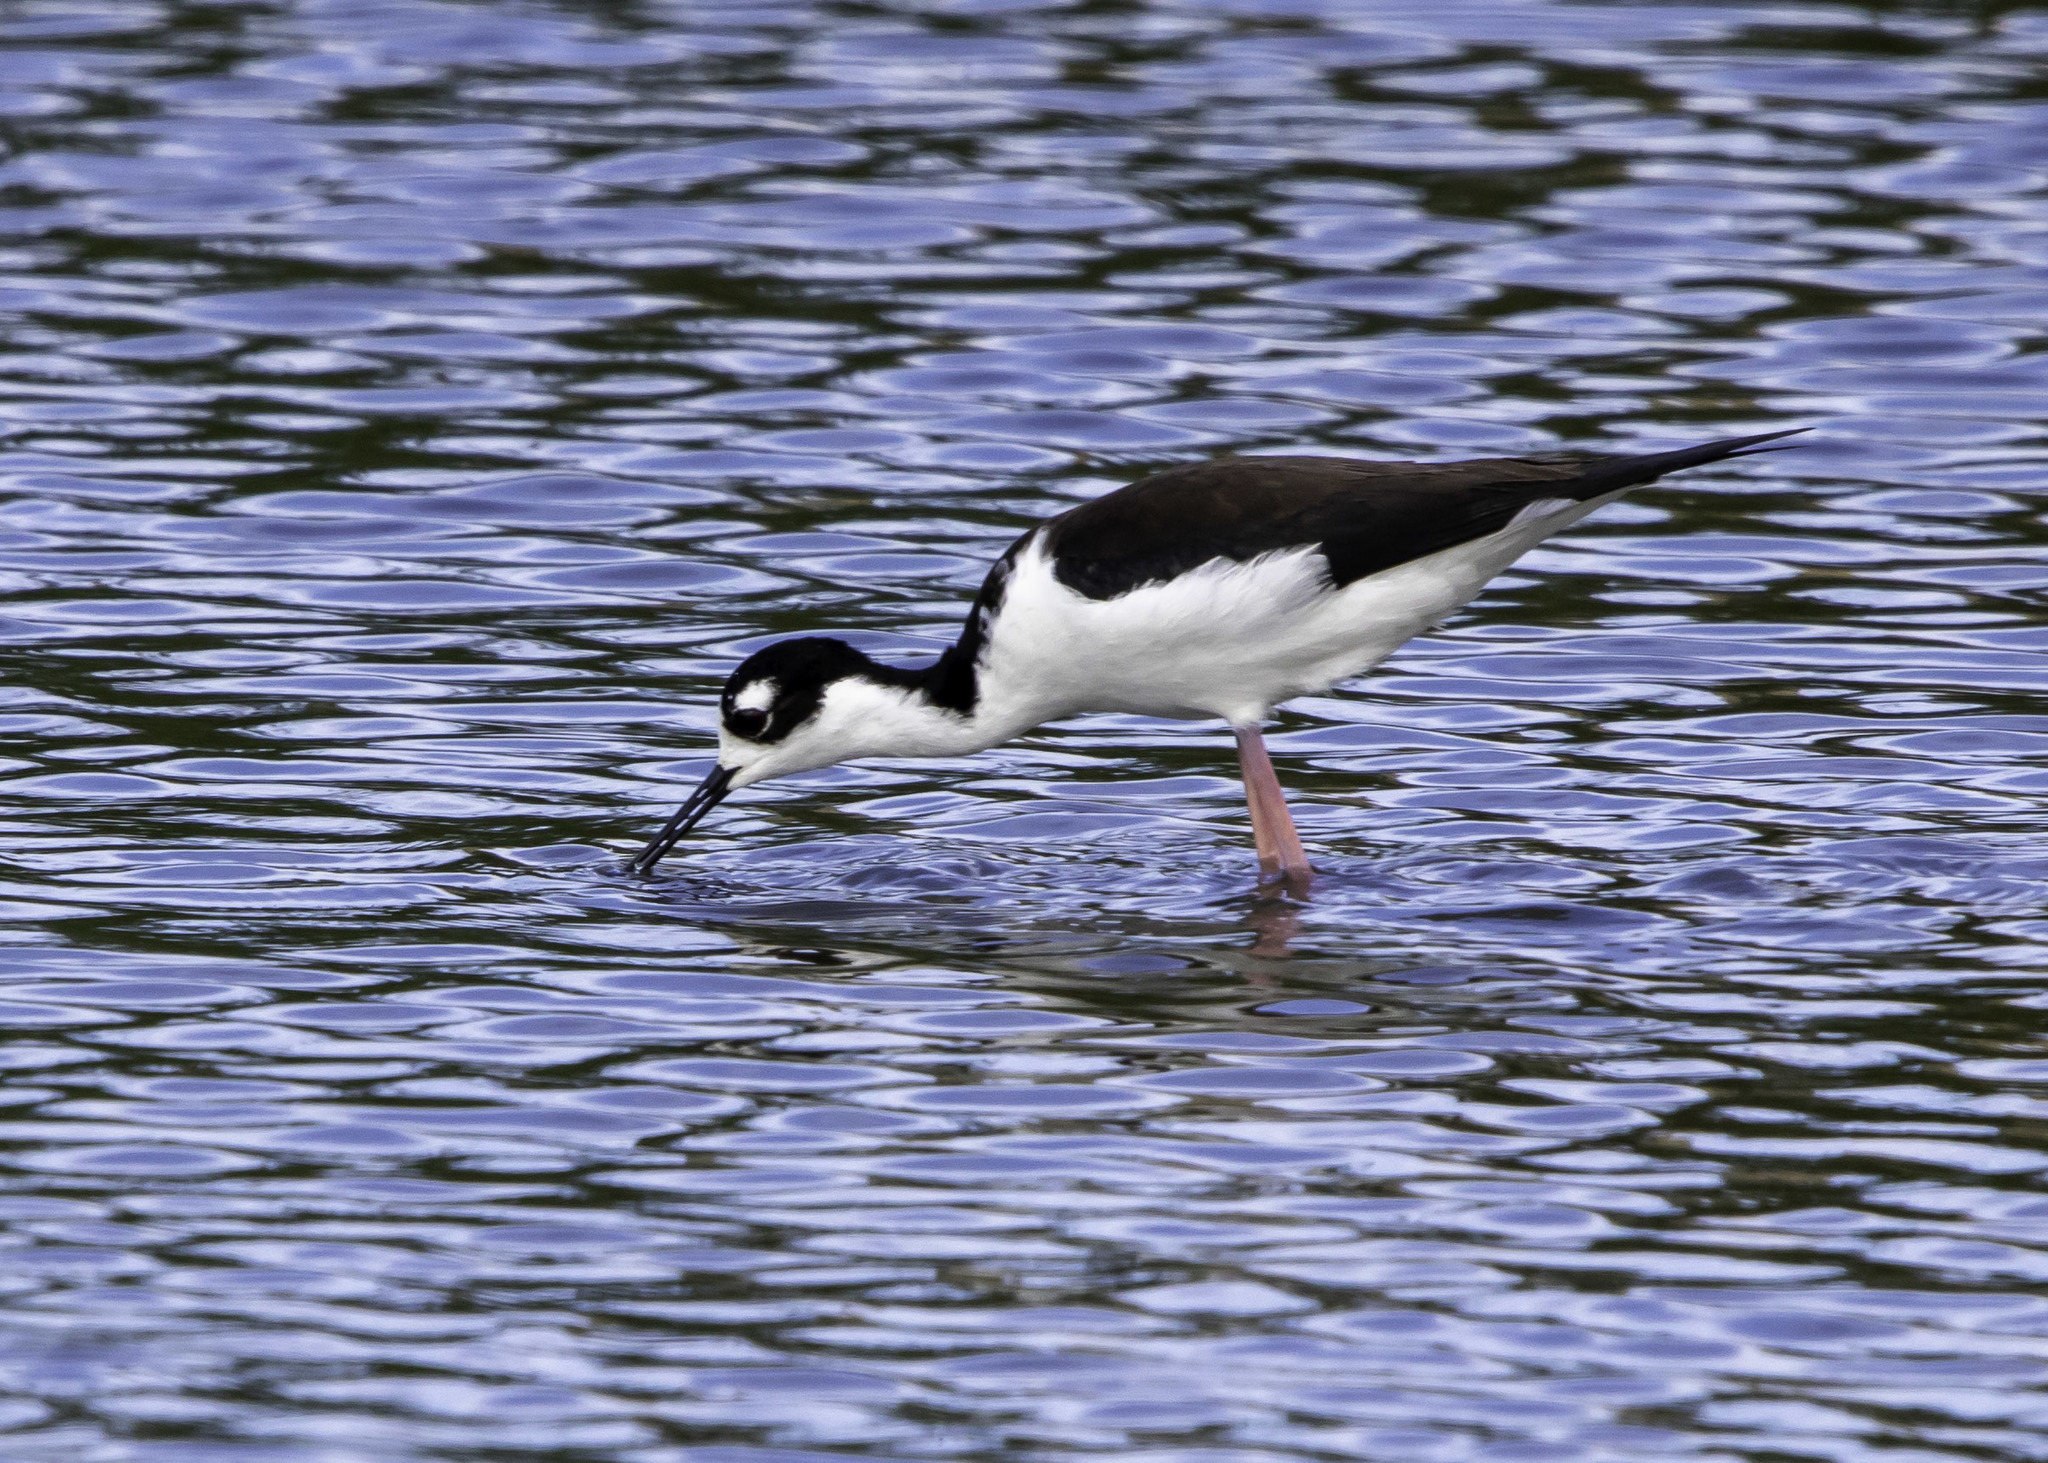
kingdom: Animalia
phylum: Chordata
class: Aves
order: Charadriiformes
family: Recurvirostridae
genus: Himantopus
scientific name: Himantopus mexicanus
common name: Black-necked stilt
